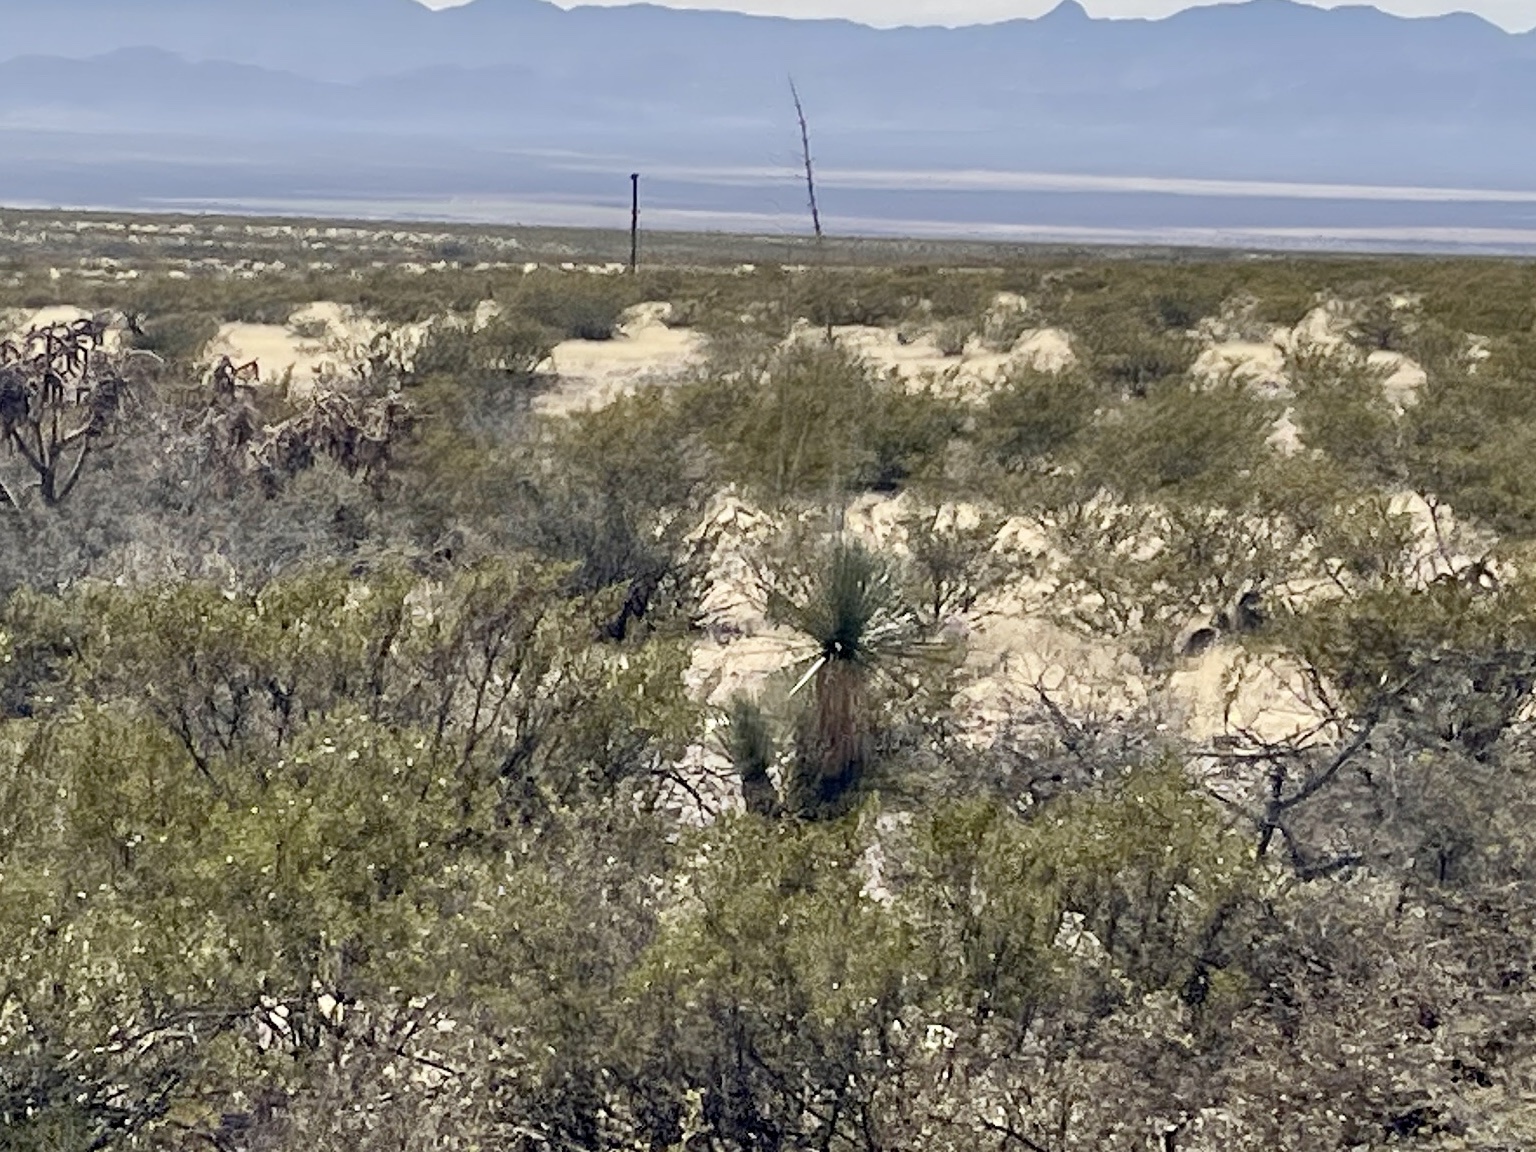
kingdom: Plantae
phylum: Tracheophyta
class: Liliopsida
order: Asparagales
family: Asparagaceae
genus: Yucca
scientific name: Yucca elata
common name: Palmella
